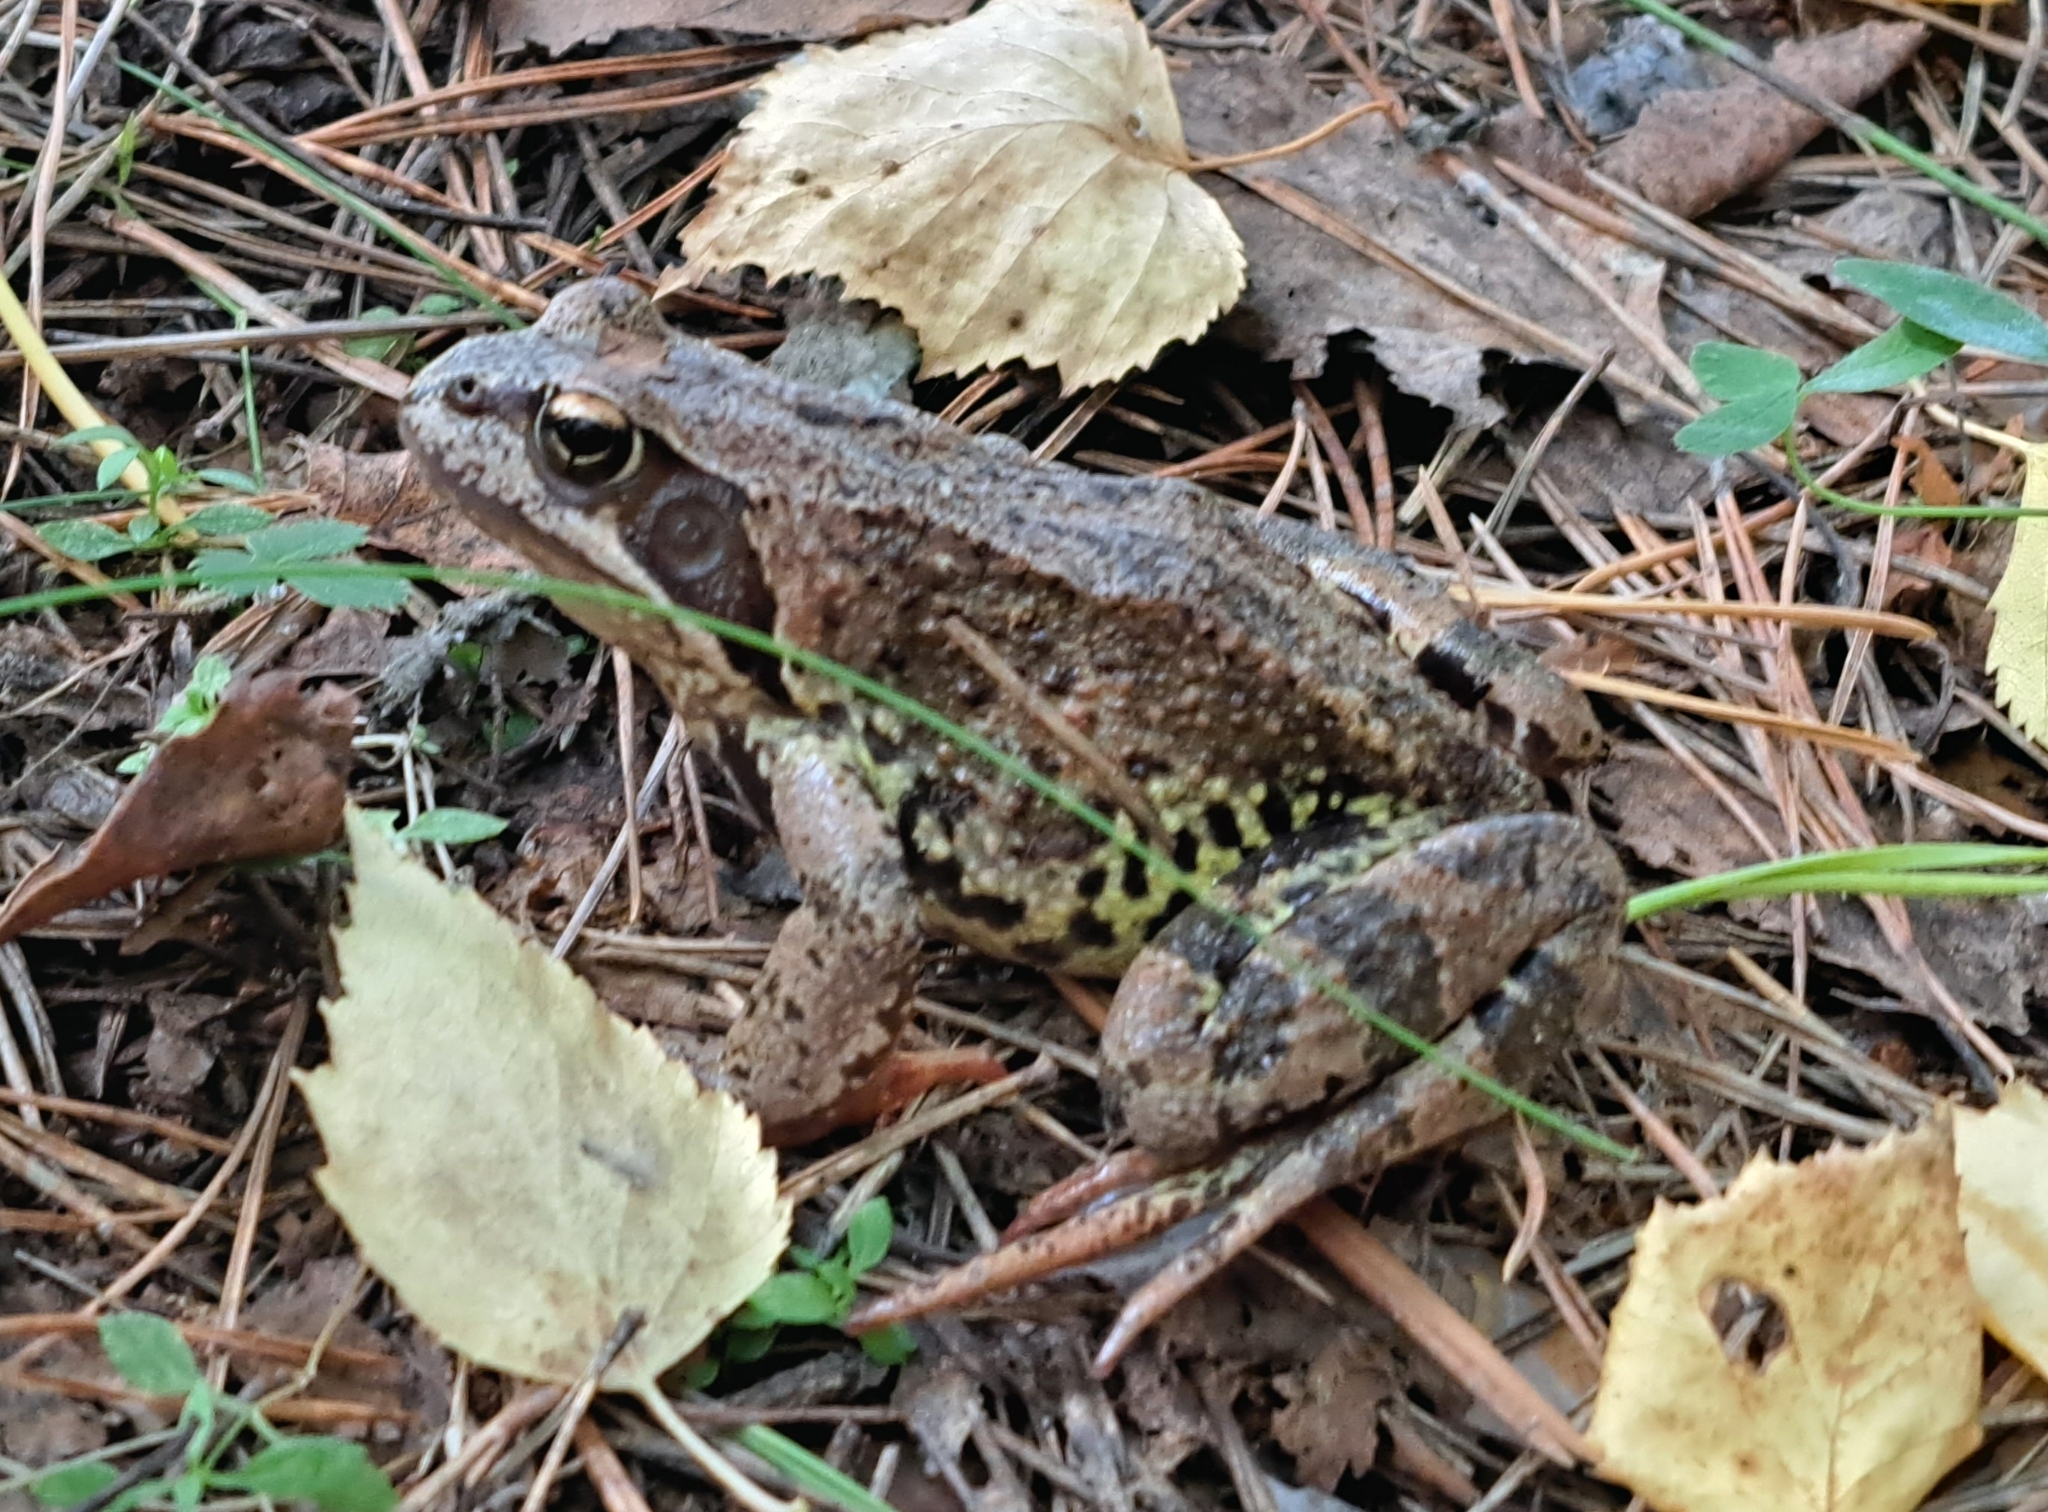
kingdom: Animalia
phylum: Chordata
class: Amphibia
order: Anura
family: Ranidae
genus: Rana
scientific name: Rana temporaria
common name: Common frog
